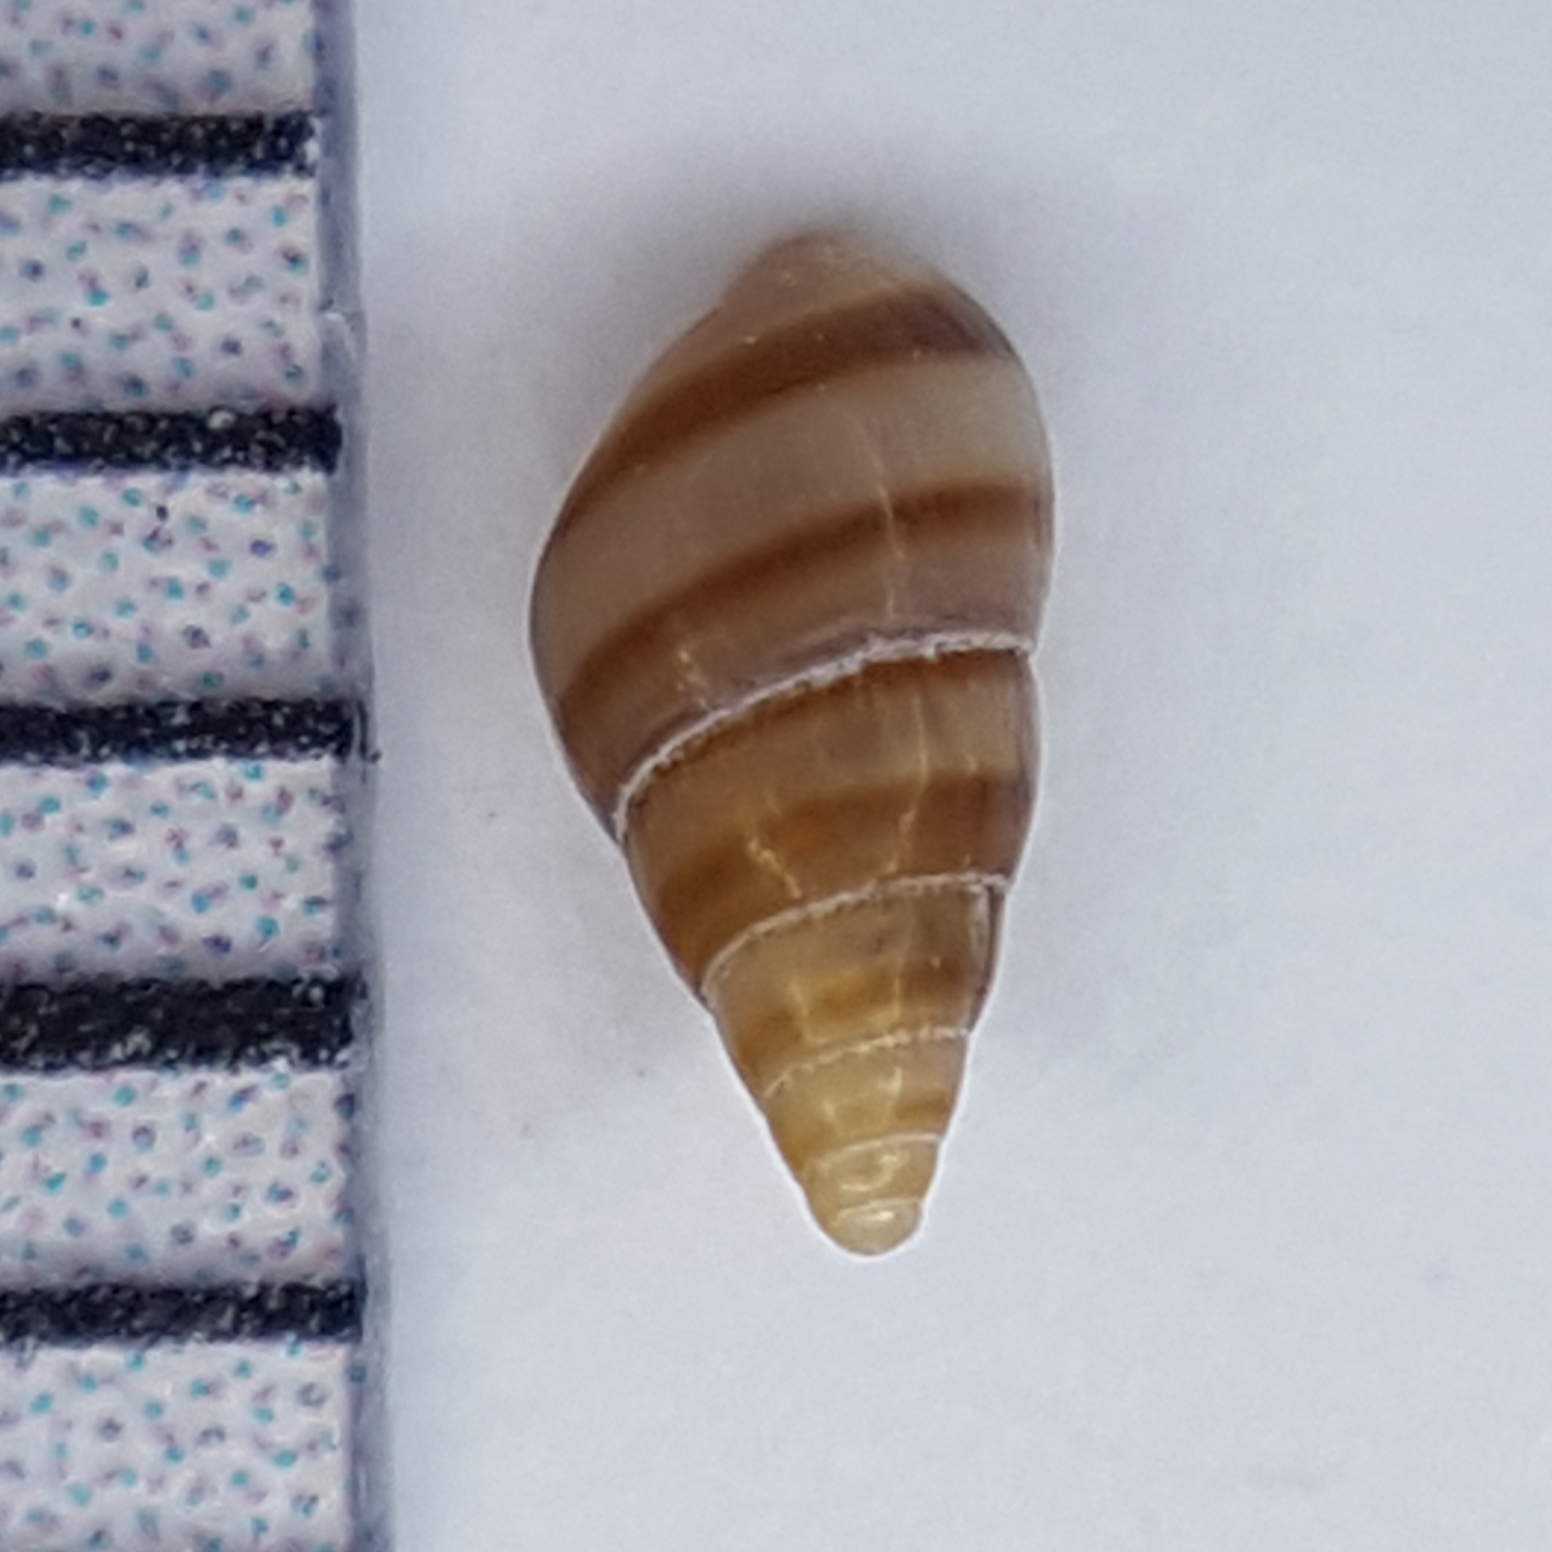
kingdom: Animalia
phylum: Mollusca
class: Gastropoda
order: Littorinimorpha
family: Rissoidae
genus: Cingula
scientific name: Cingula trifasciata
